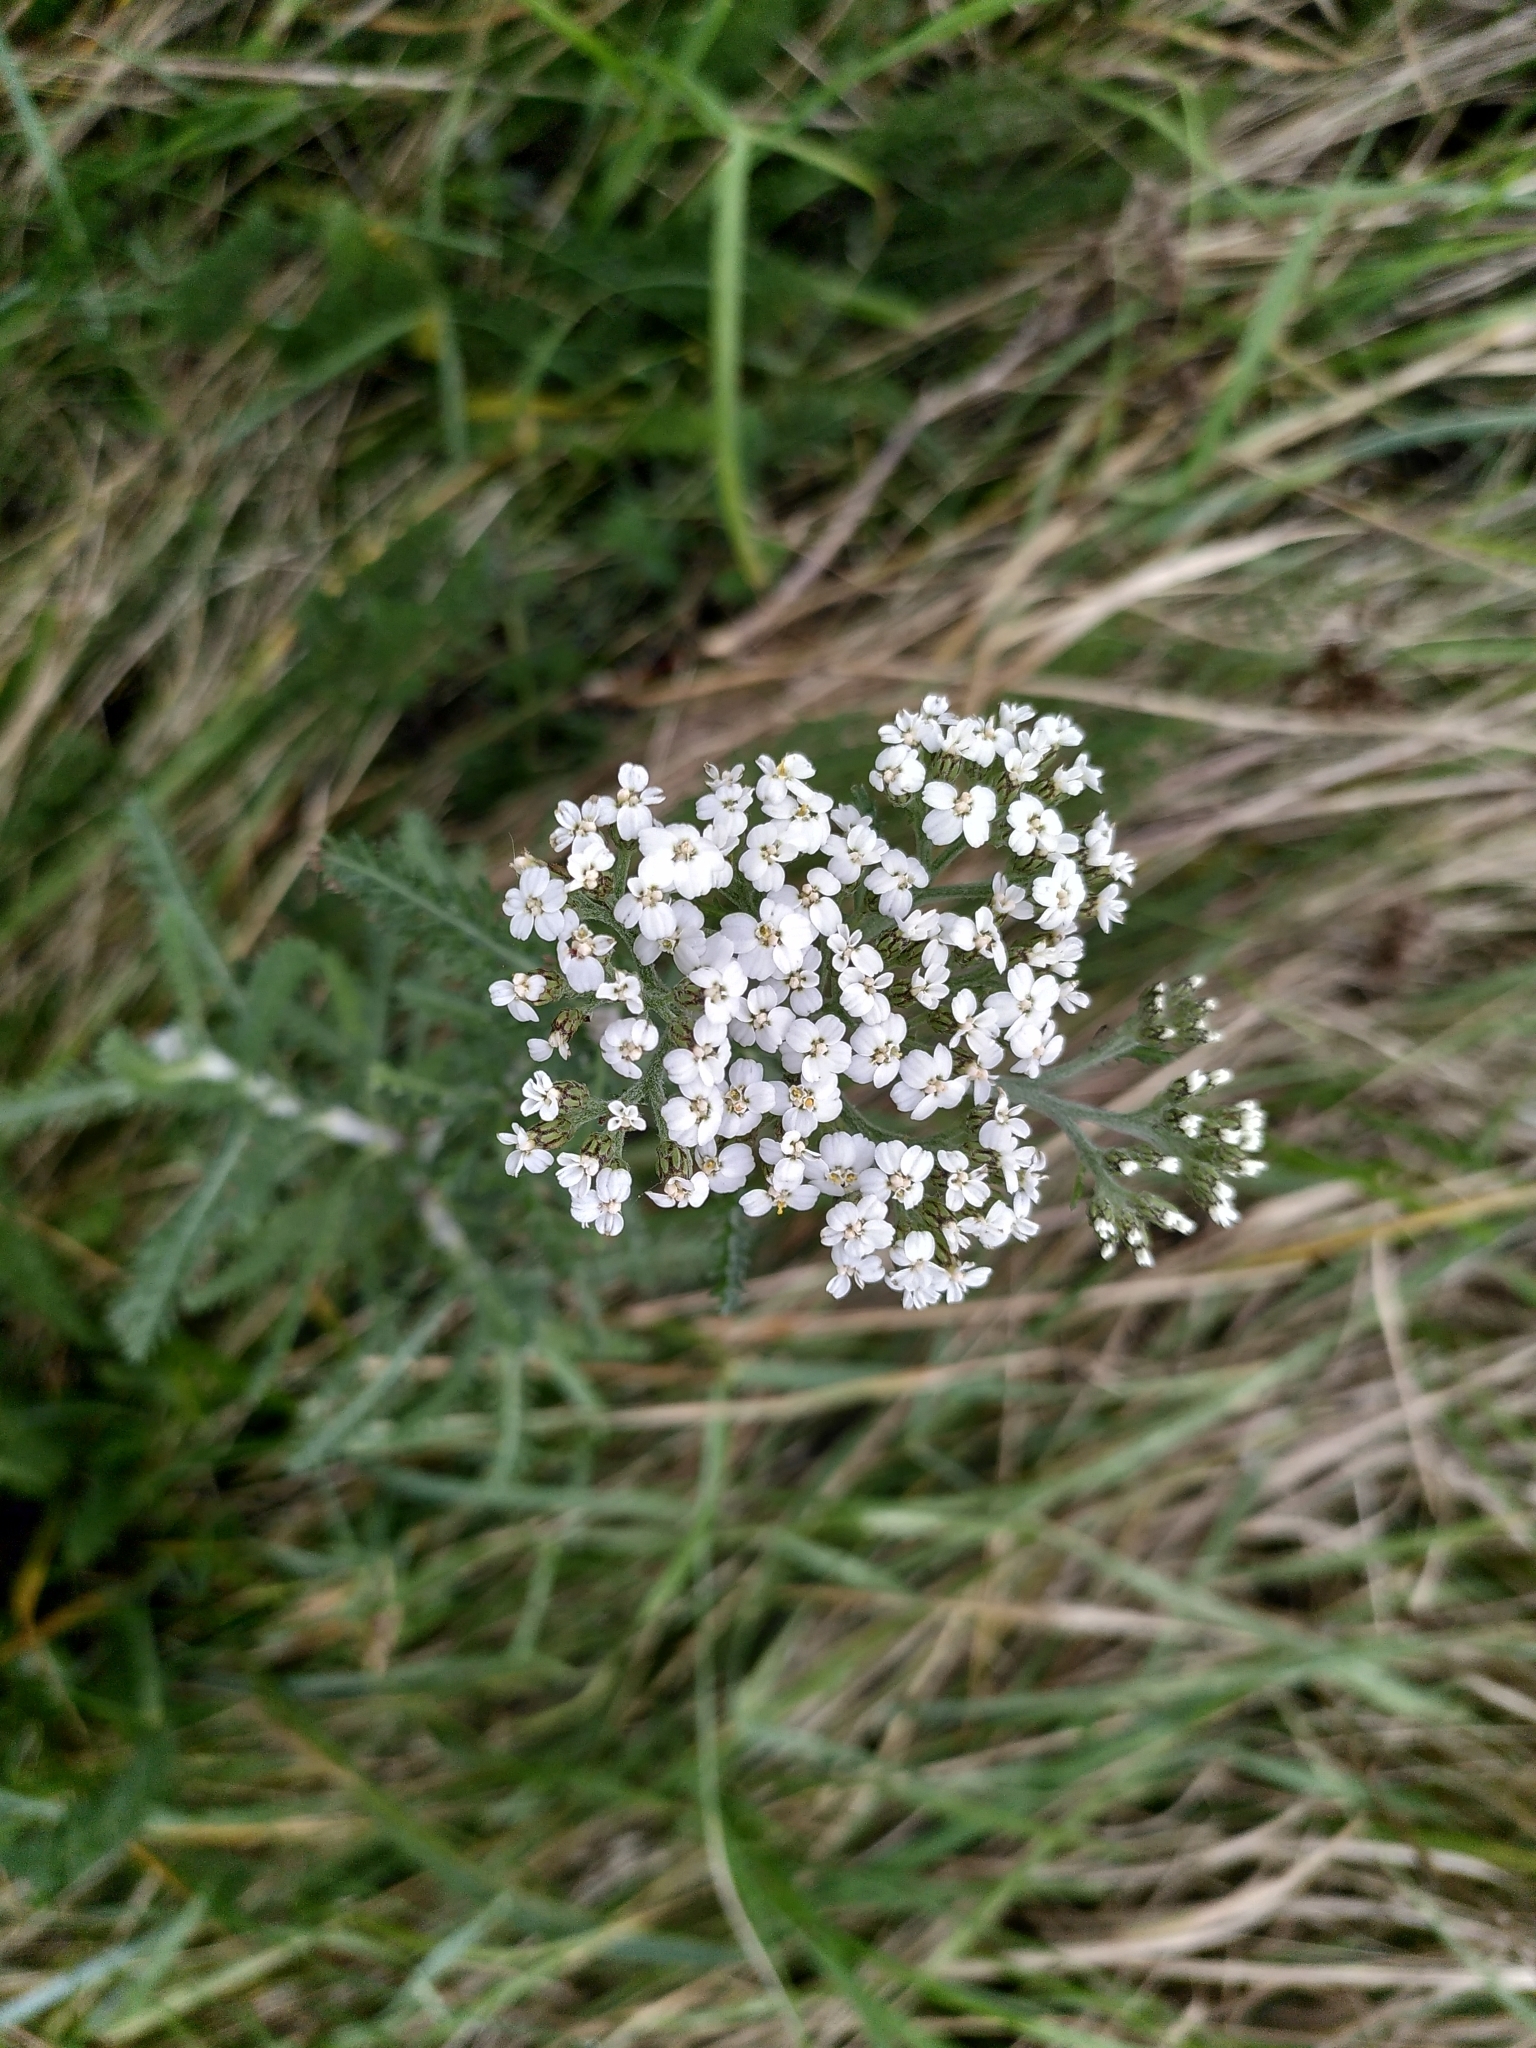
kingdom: Plantae
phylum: Tracheophyta
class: Magnoliopsida
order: Asterales
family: Asteraceae
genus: Achillea
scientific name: Achillea millefolium
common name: Yarrow
